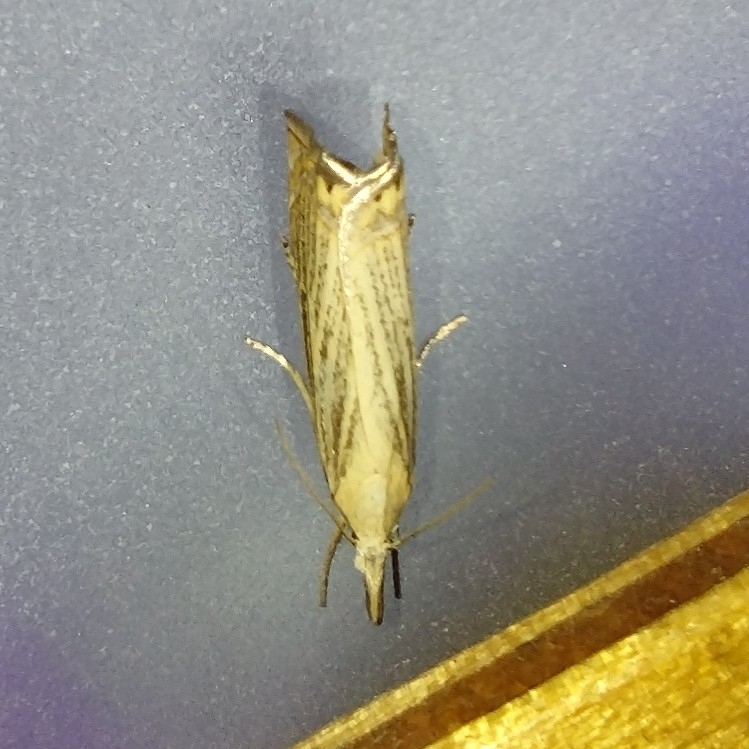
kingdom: Animalia
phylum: Arthropoda
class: Insecta
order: Lepidoptera
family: Crambidae
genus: Chrysoteuchia
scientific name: Chrysoteuchia culmella
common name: Garden grass-veneer
